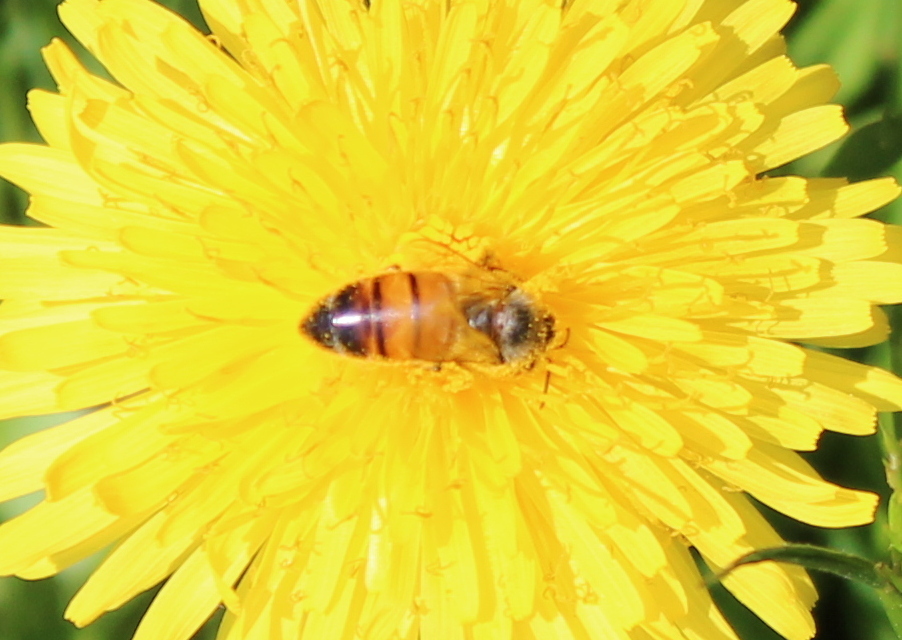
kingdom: Animalia
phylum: Arthropoda
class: Insecta
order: Hymenoptera
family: Apidae
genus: Apis
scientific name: Apis mellifera
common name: Honey bee
